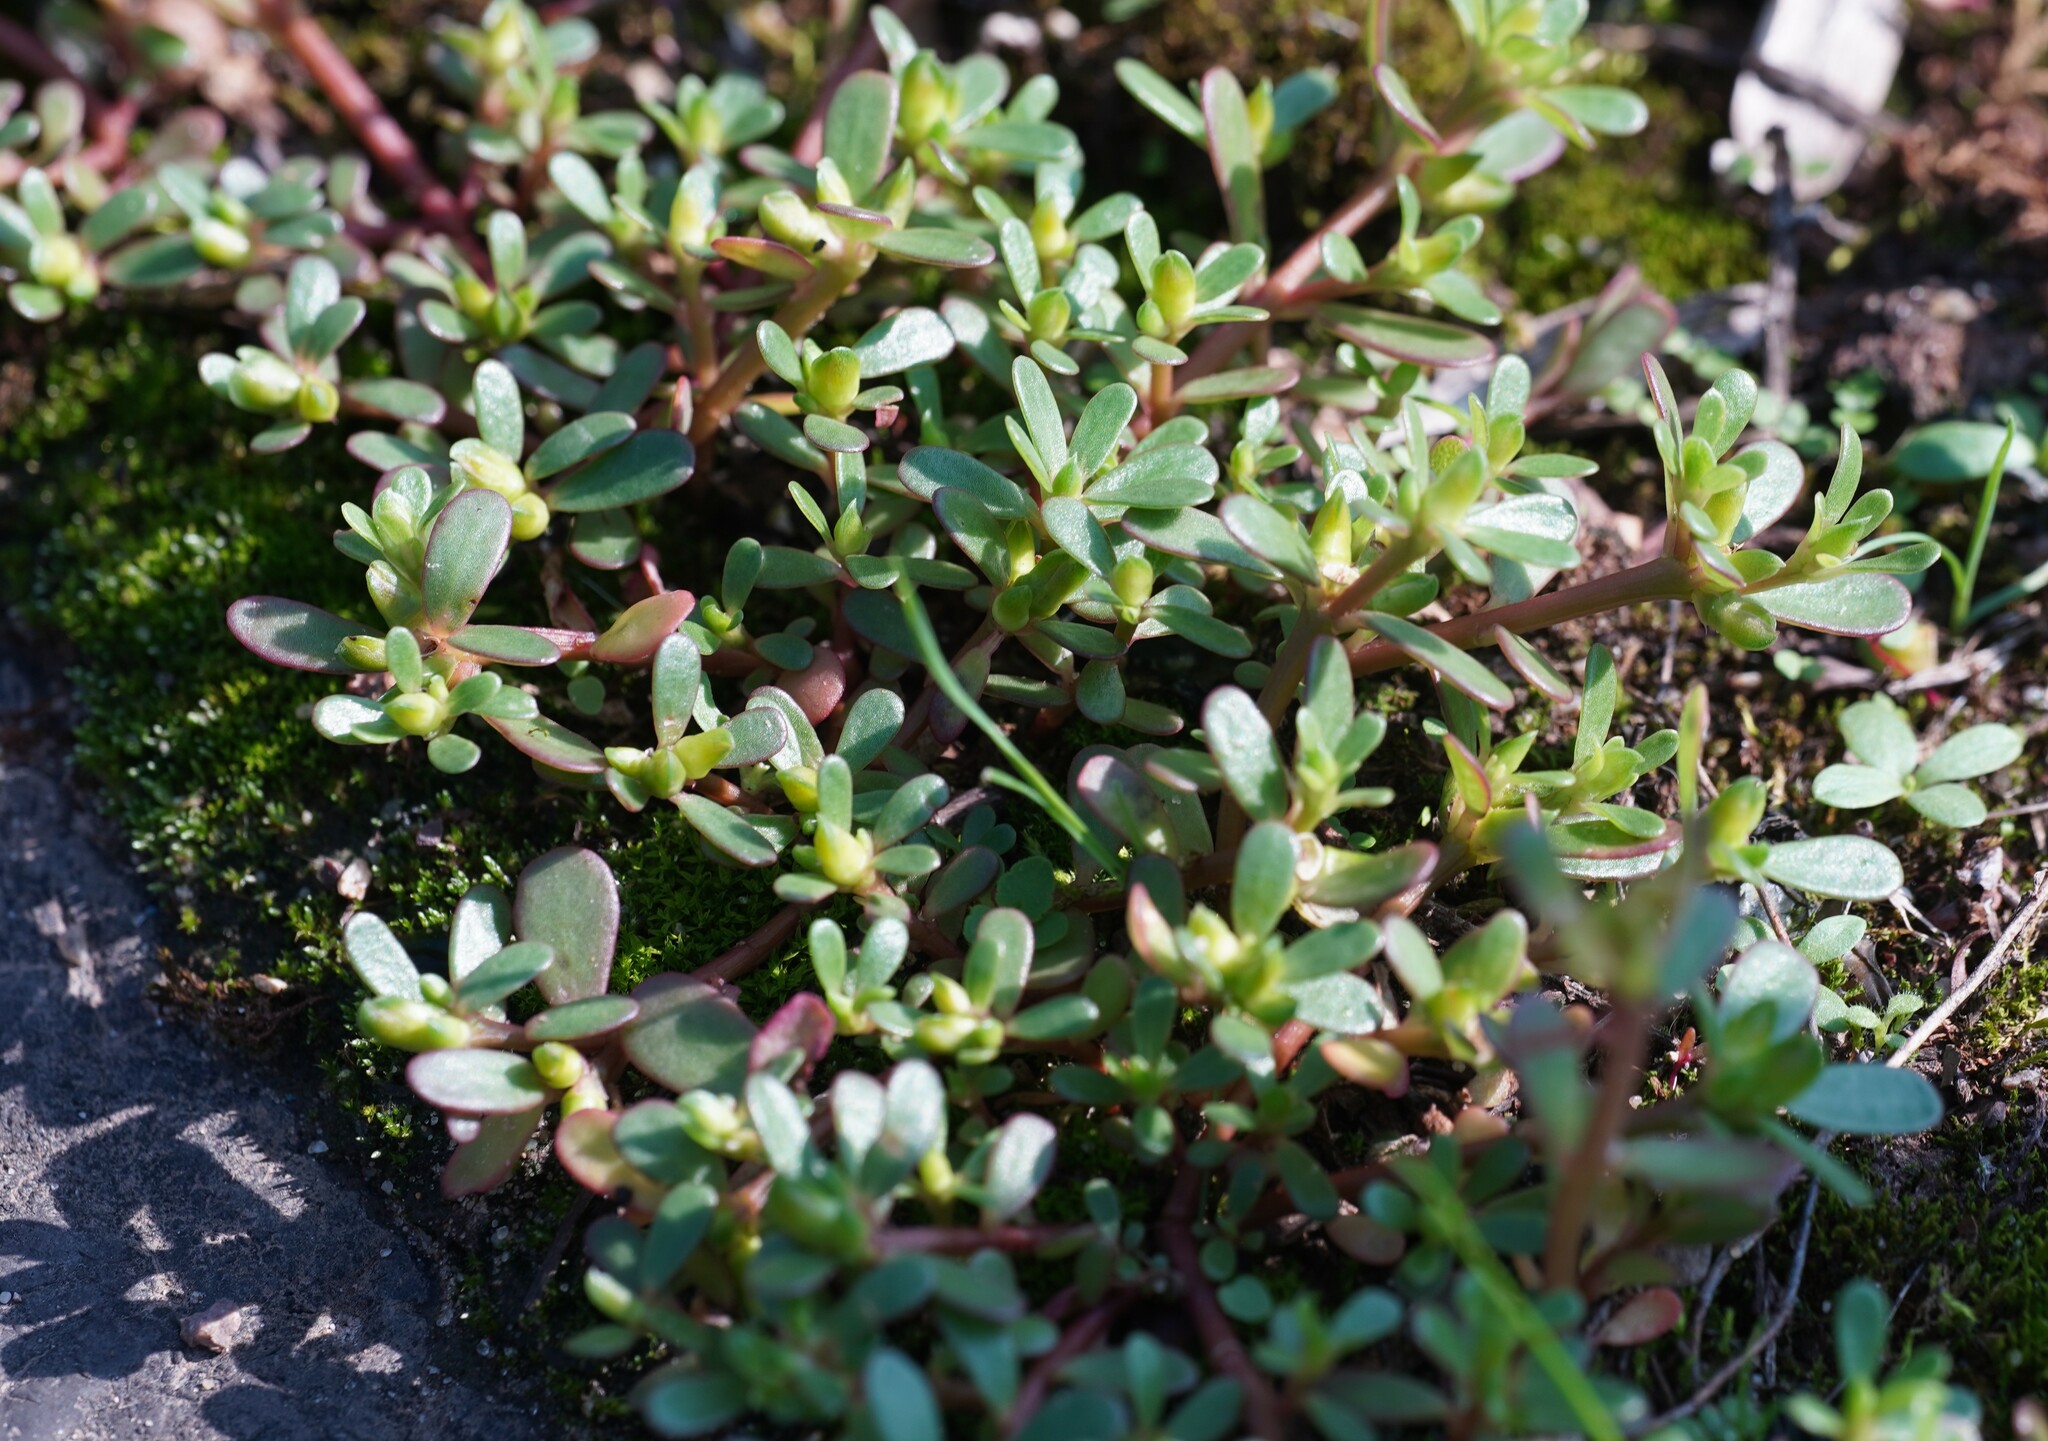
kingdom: Plantae
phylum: Tracheophyta
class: Magnoliopsida
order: Caryophyllales
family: Portulacaceae
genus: Portulaca
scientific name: Portulaca oleracea
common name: Common purslane
